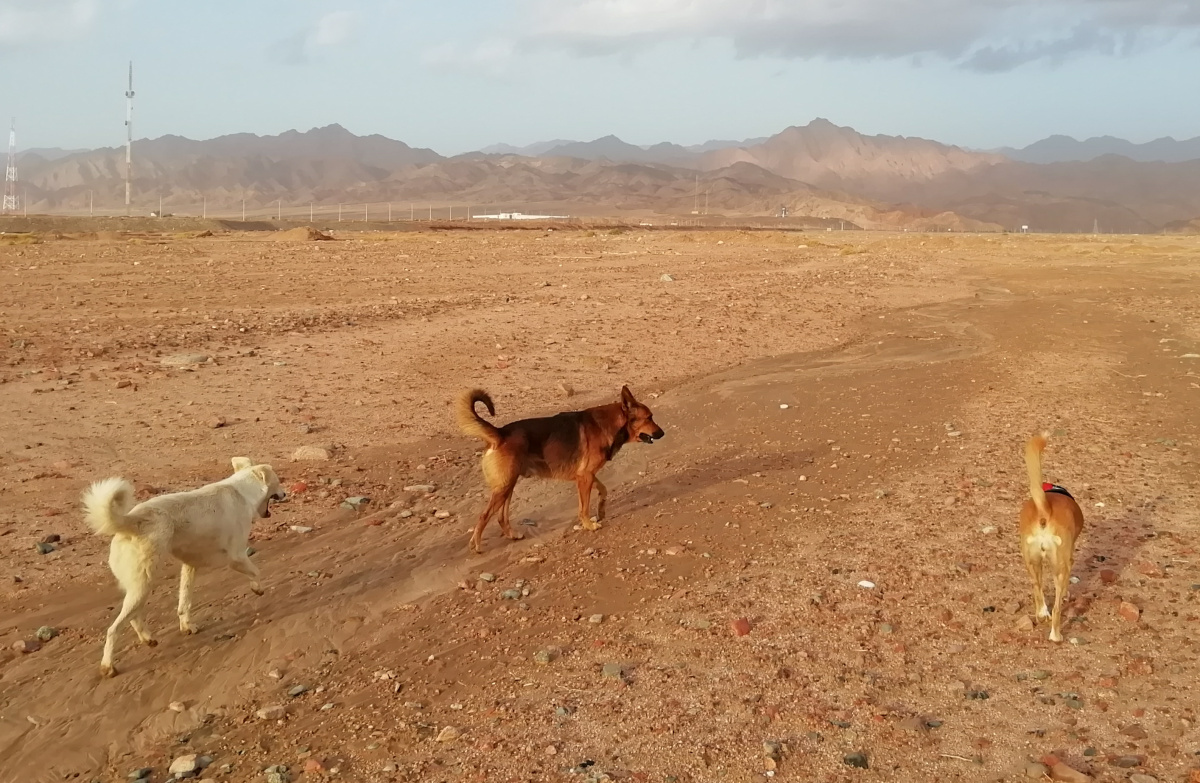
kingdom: Animalia
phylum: Chordata
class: Mammalia
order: Carnivora
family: Canidae
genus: Canis
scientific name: Canis lupus
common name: Gray wolf
